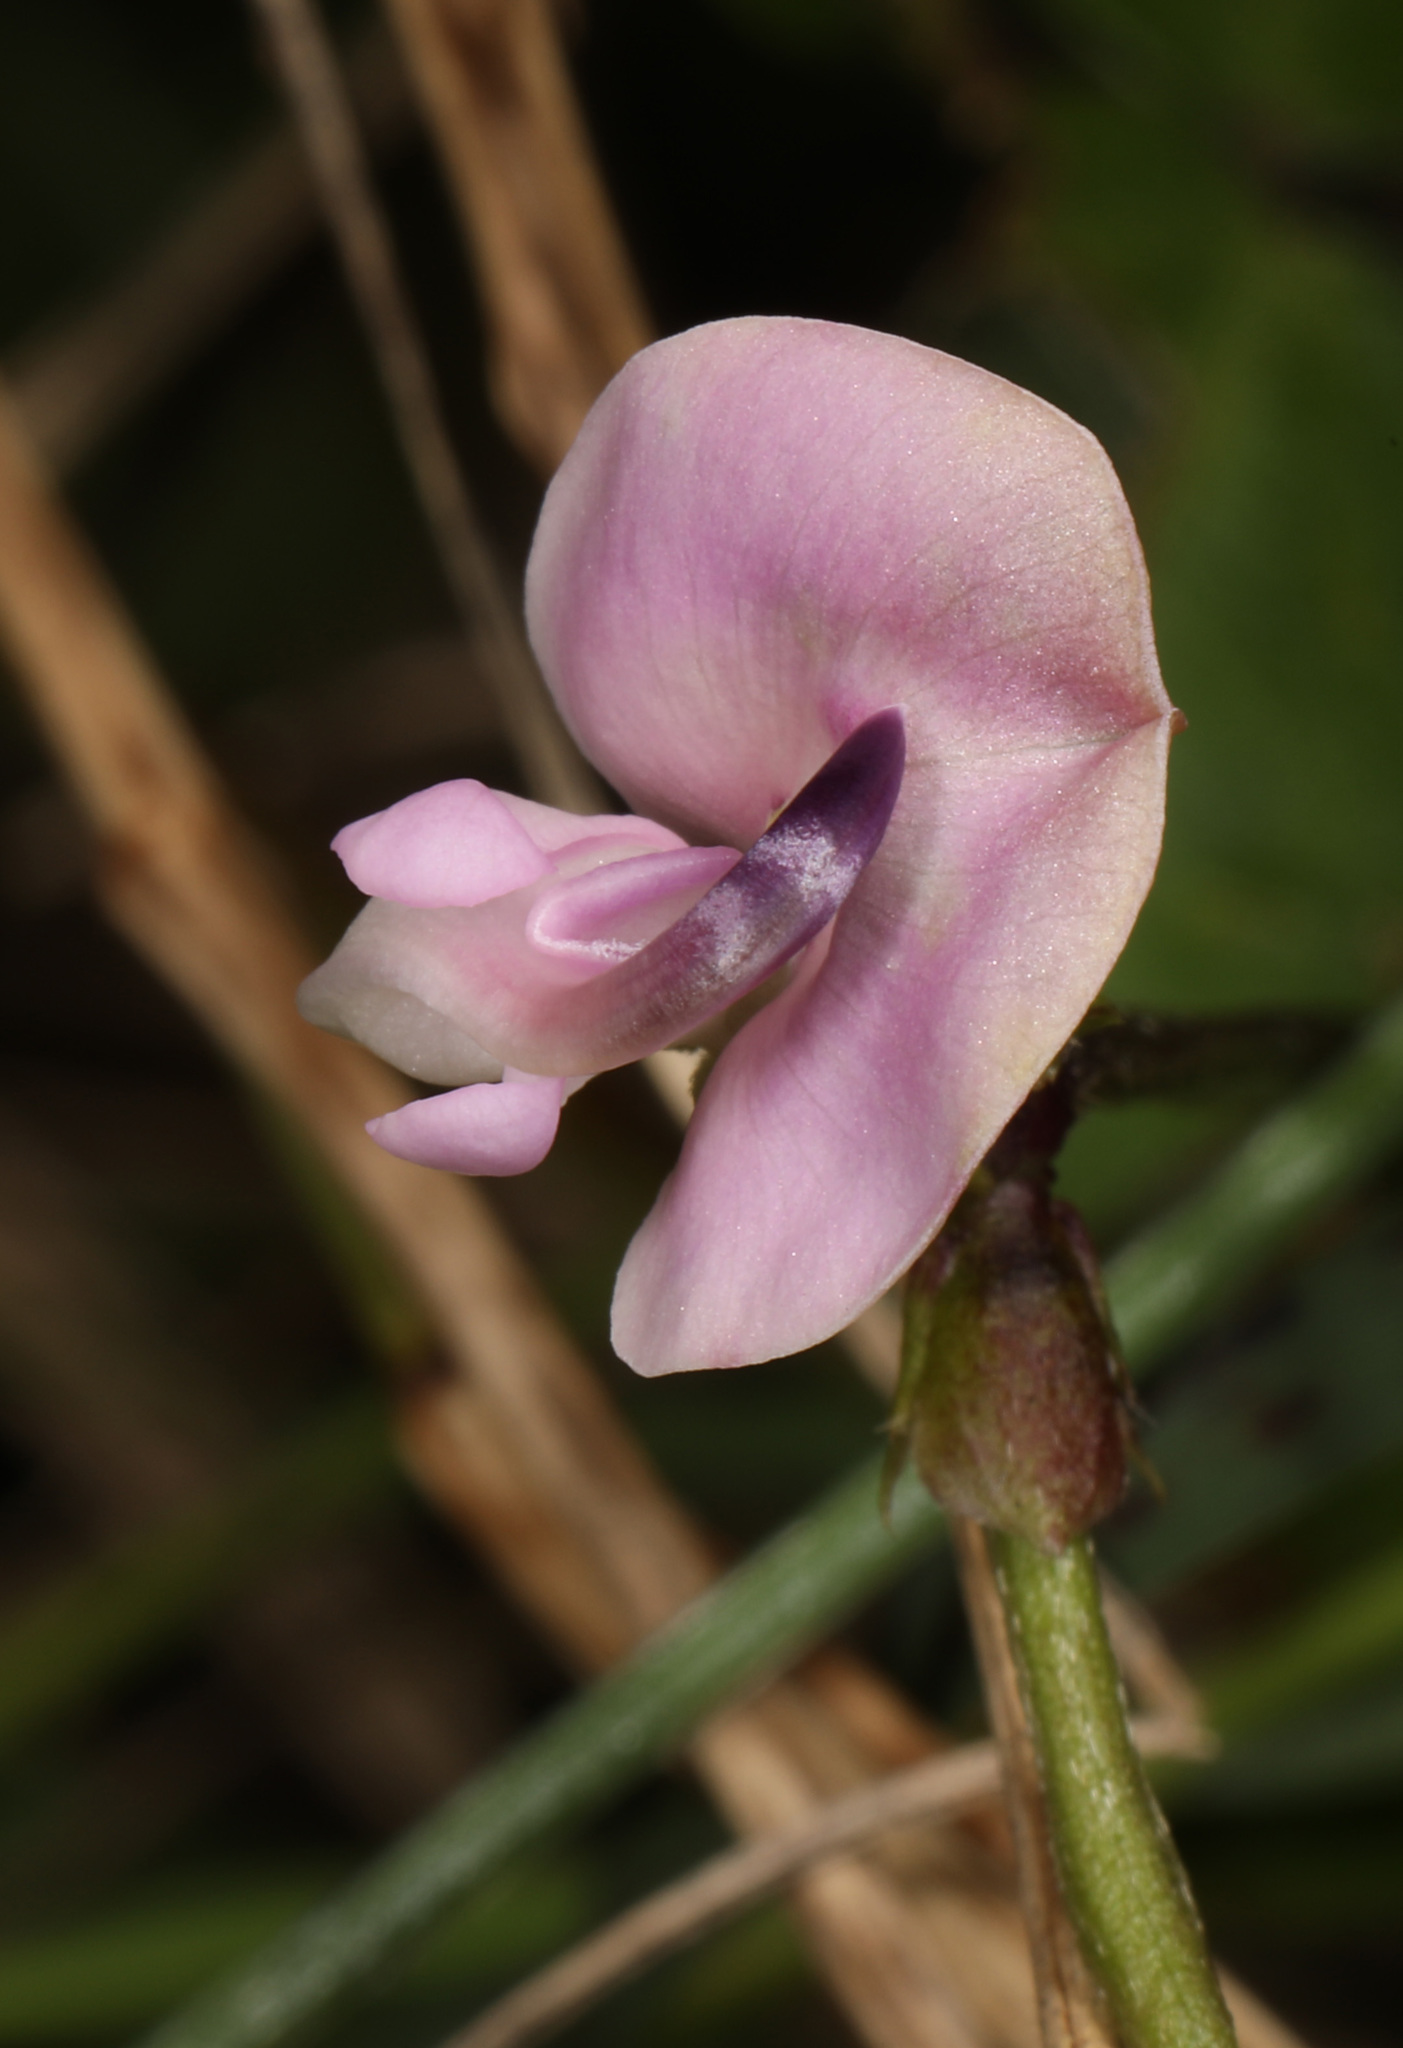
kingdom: Plantae
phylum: Tracheophyta
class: Magnoliopsida
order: Fabales
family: Fabaceae
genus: Strophostyles
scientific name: Strophostyles helvola
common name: Trailing wild bean
